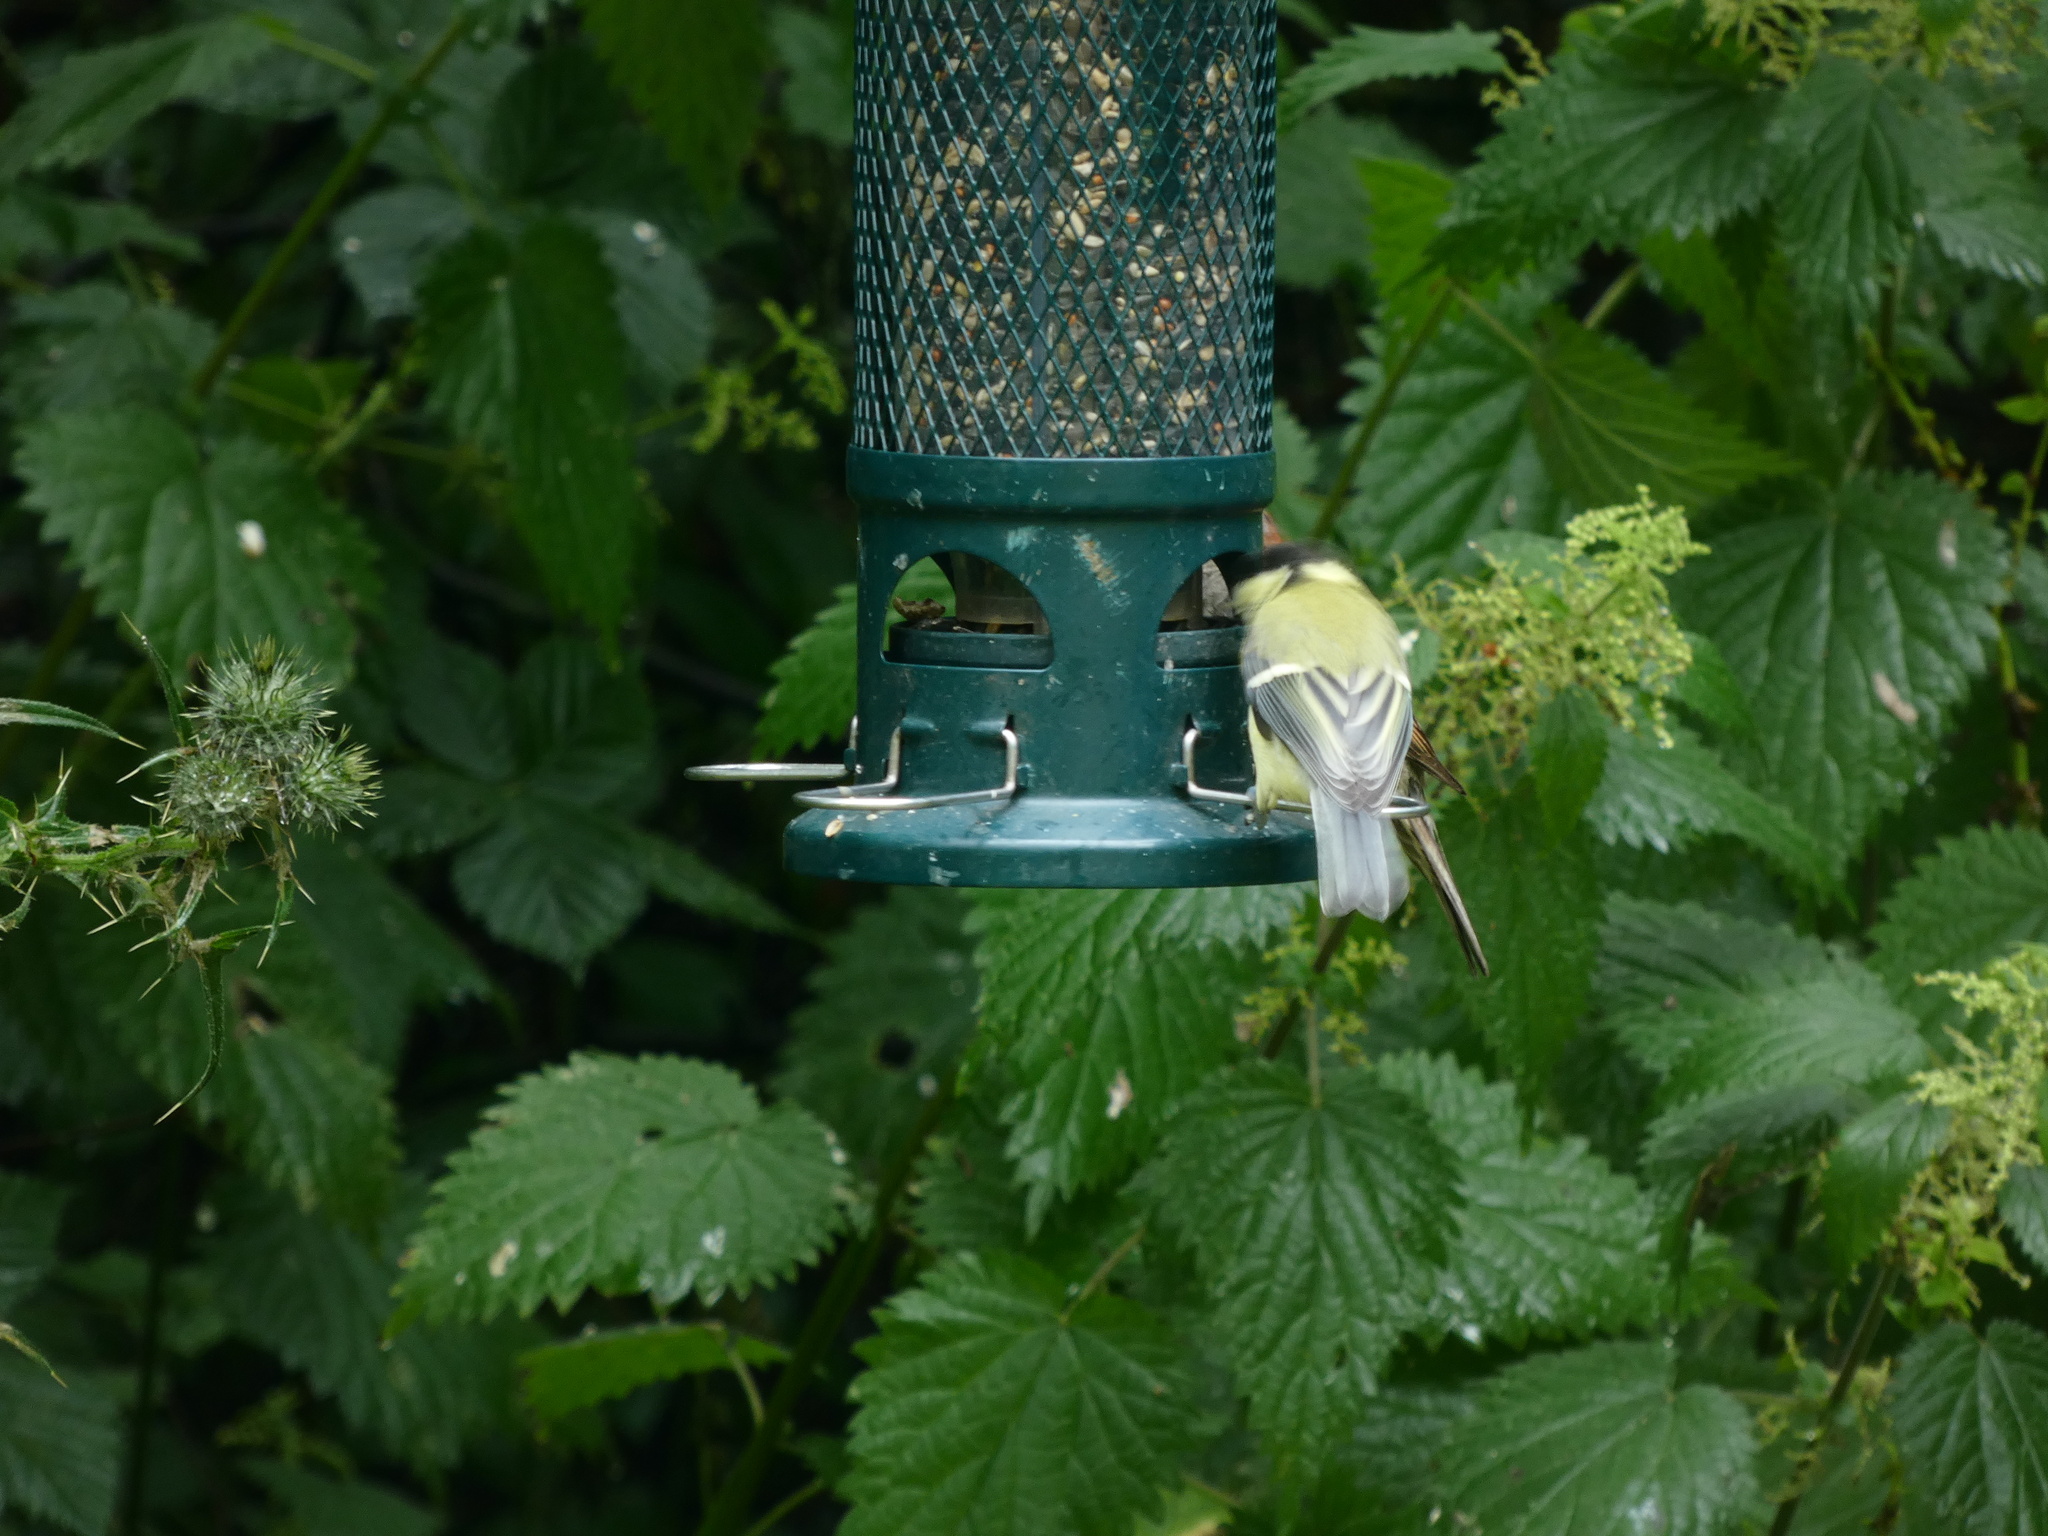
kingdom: Animalia
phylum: Chordata
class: Aves
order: Passeriformes
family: Paridae
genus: Parus
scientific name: Parus major
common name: Great tit
